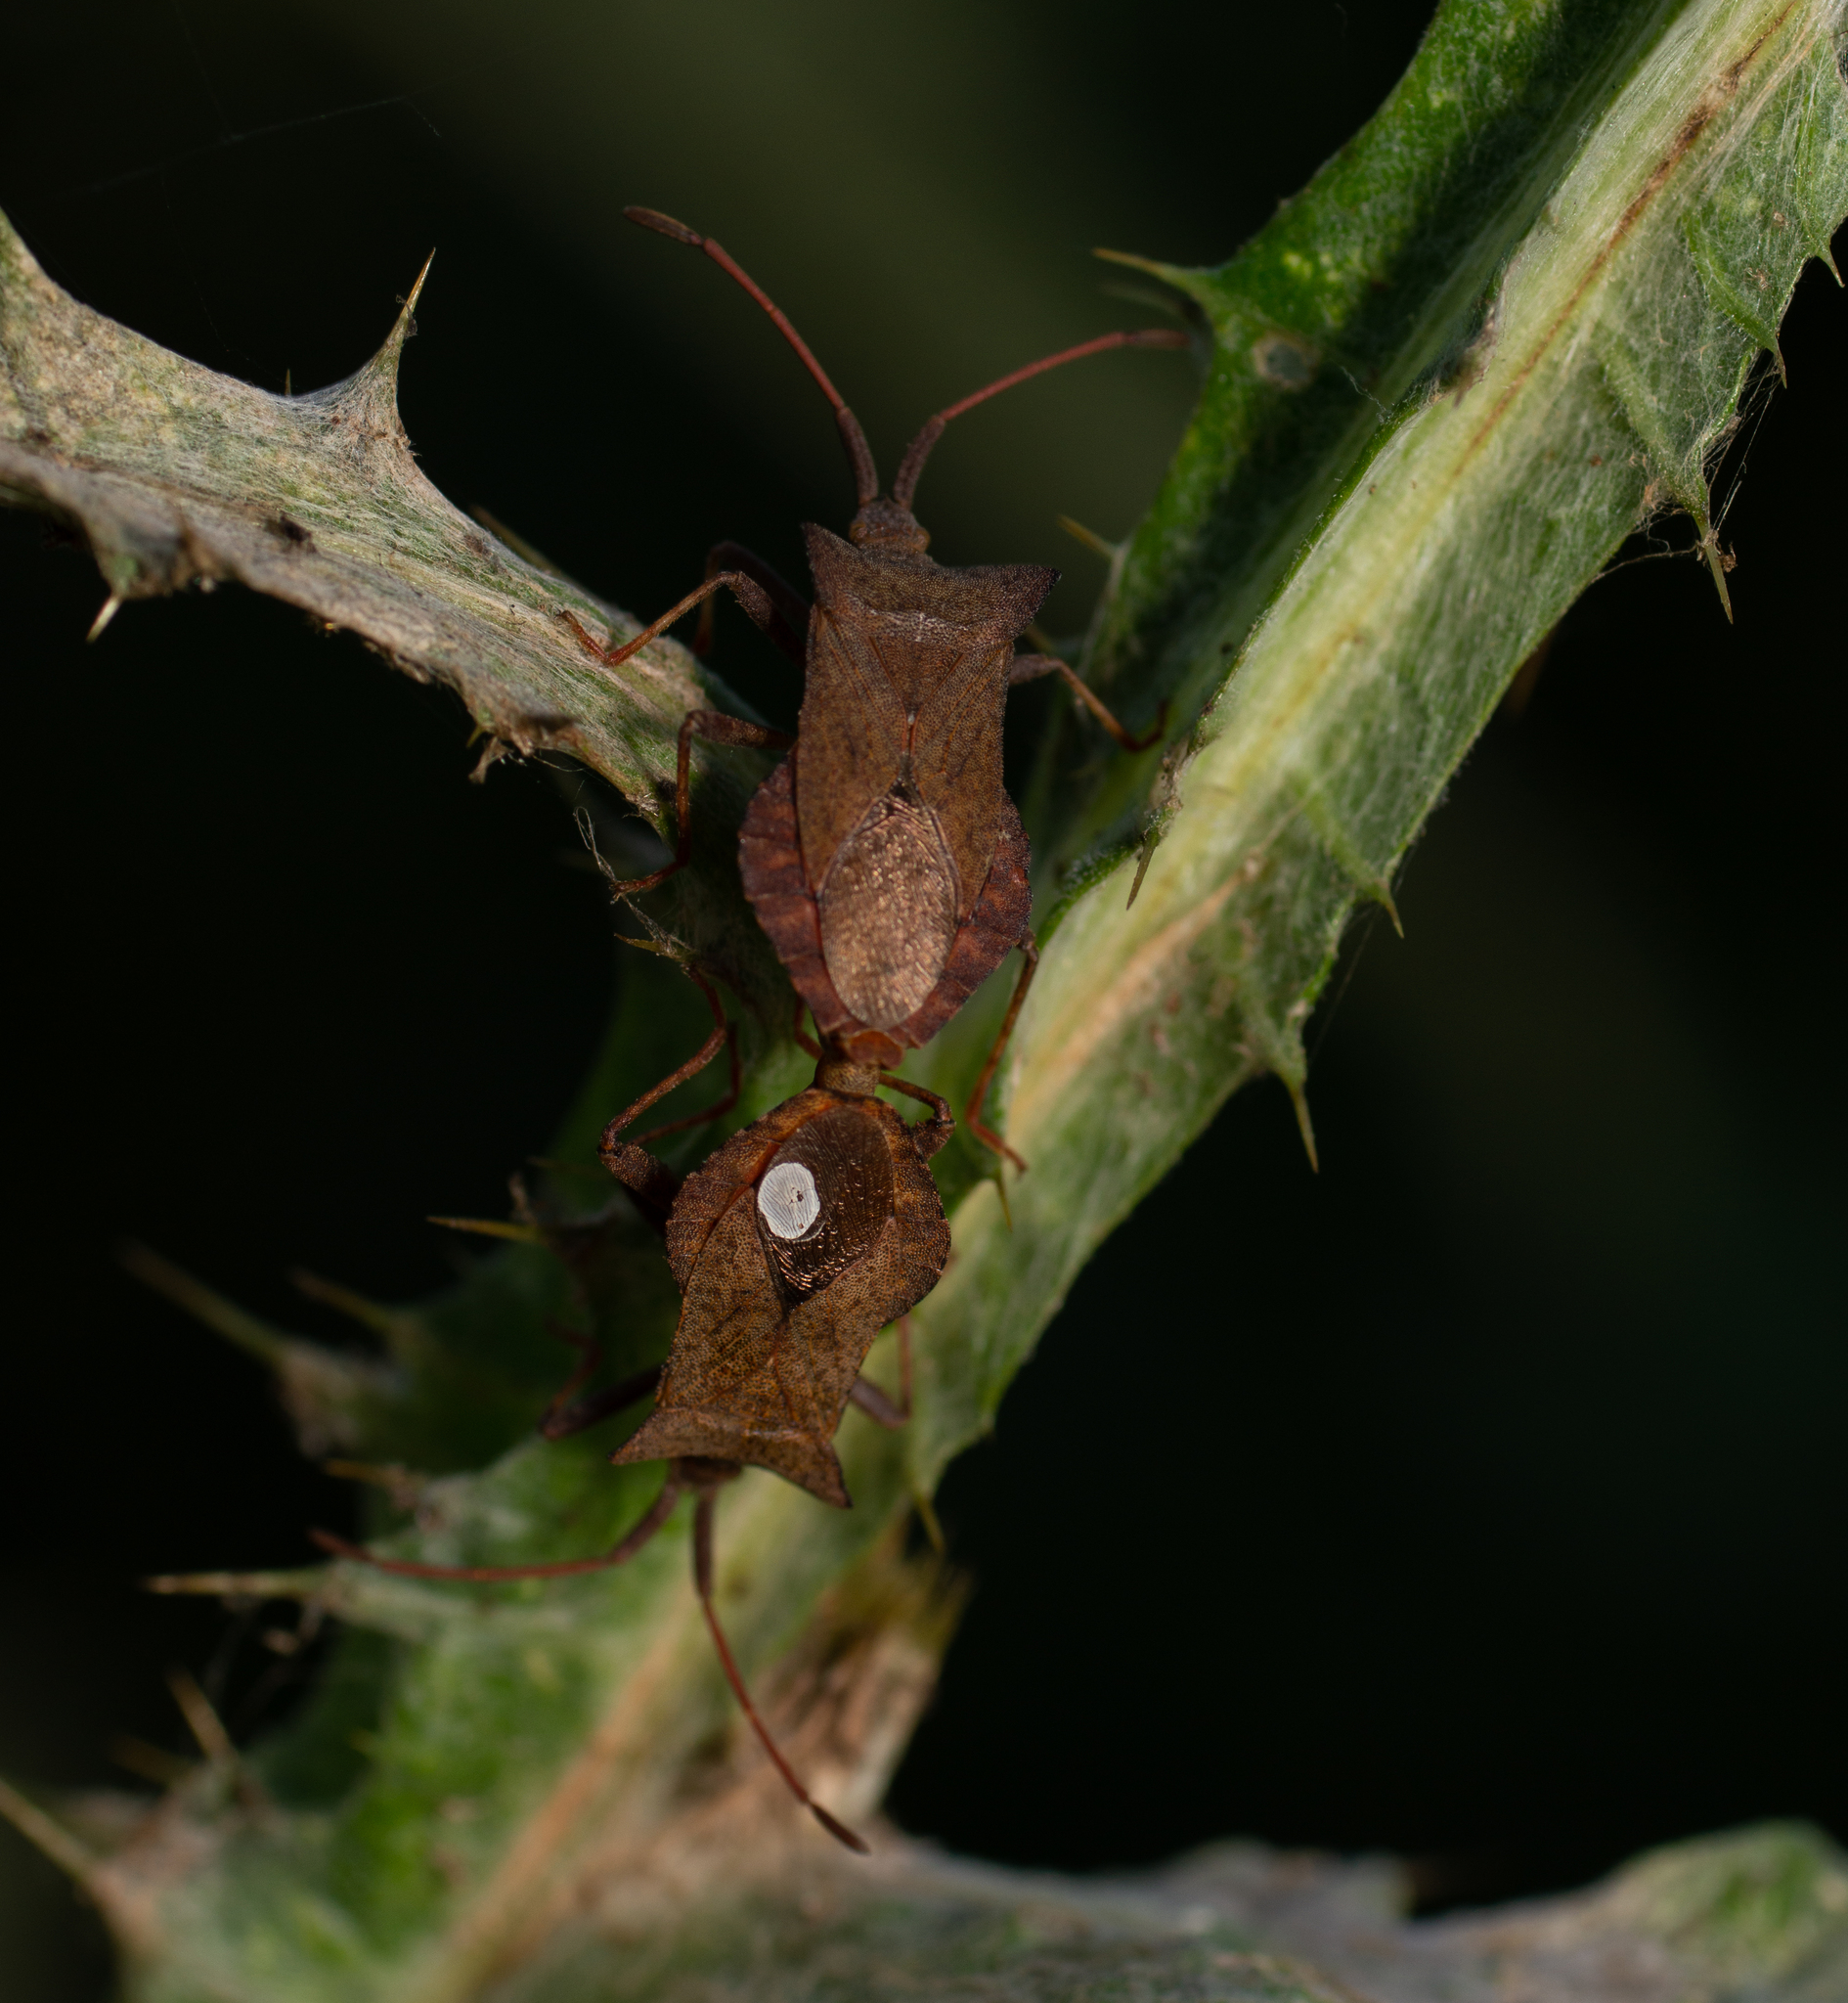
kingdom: Animalia
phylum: Arthropoda
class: Insecta
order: Hemiptera
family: Coreidae
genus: Coreus
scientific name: Coreus marginatus
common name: Dock bug
